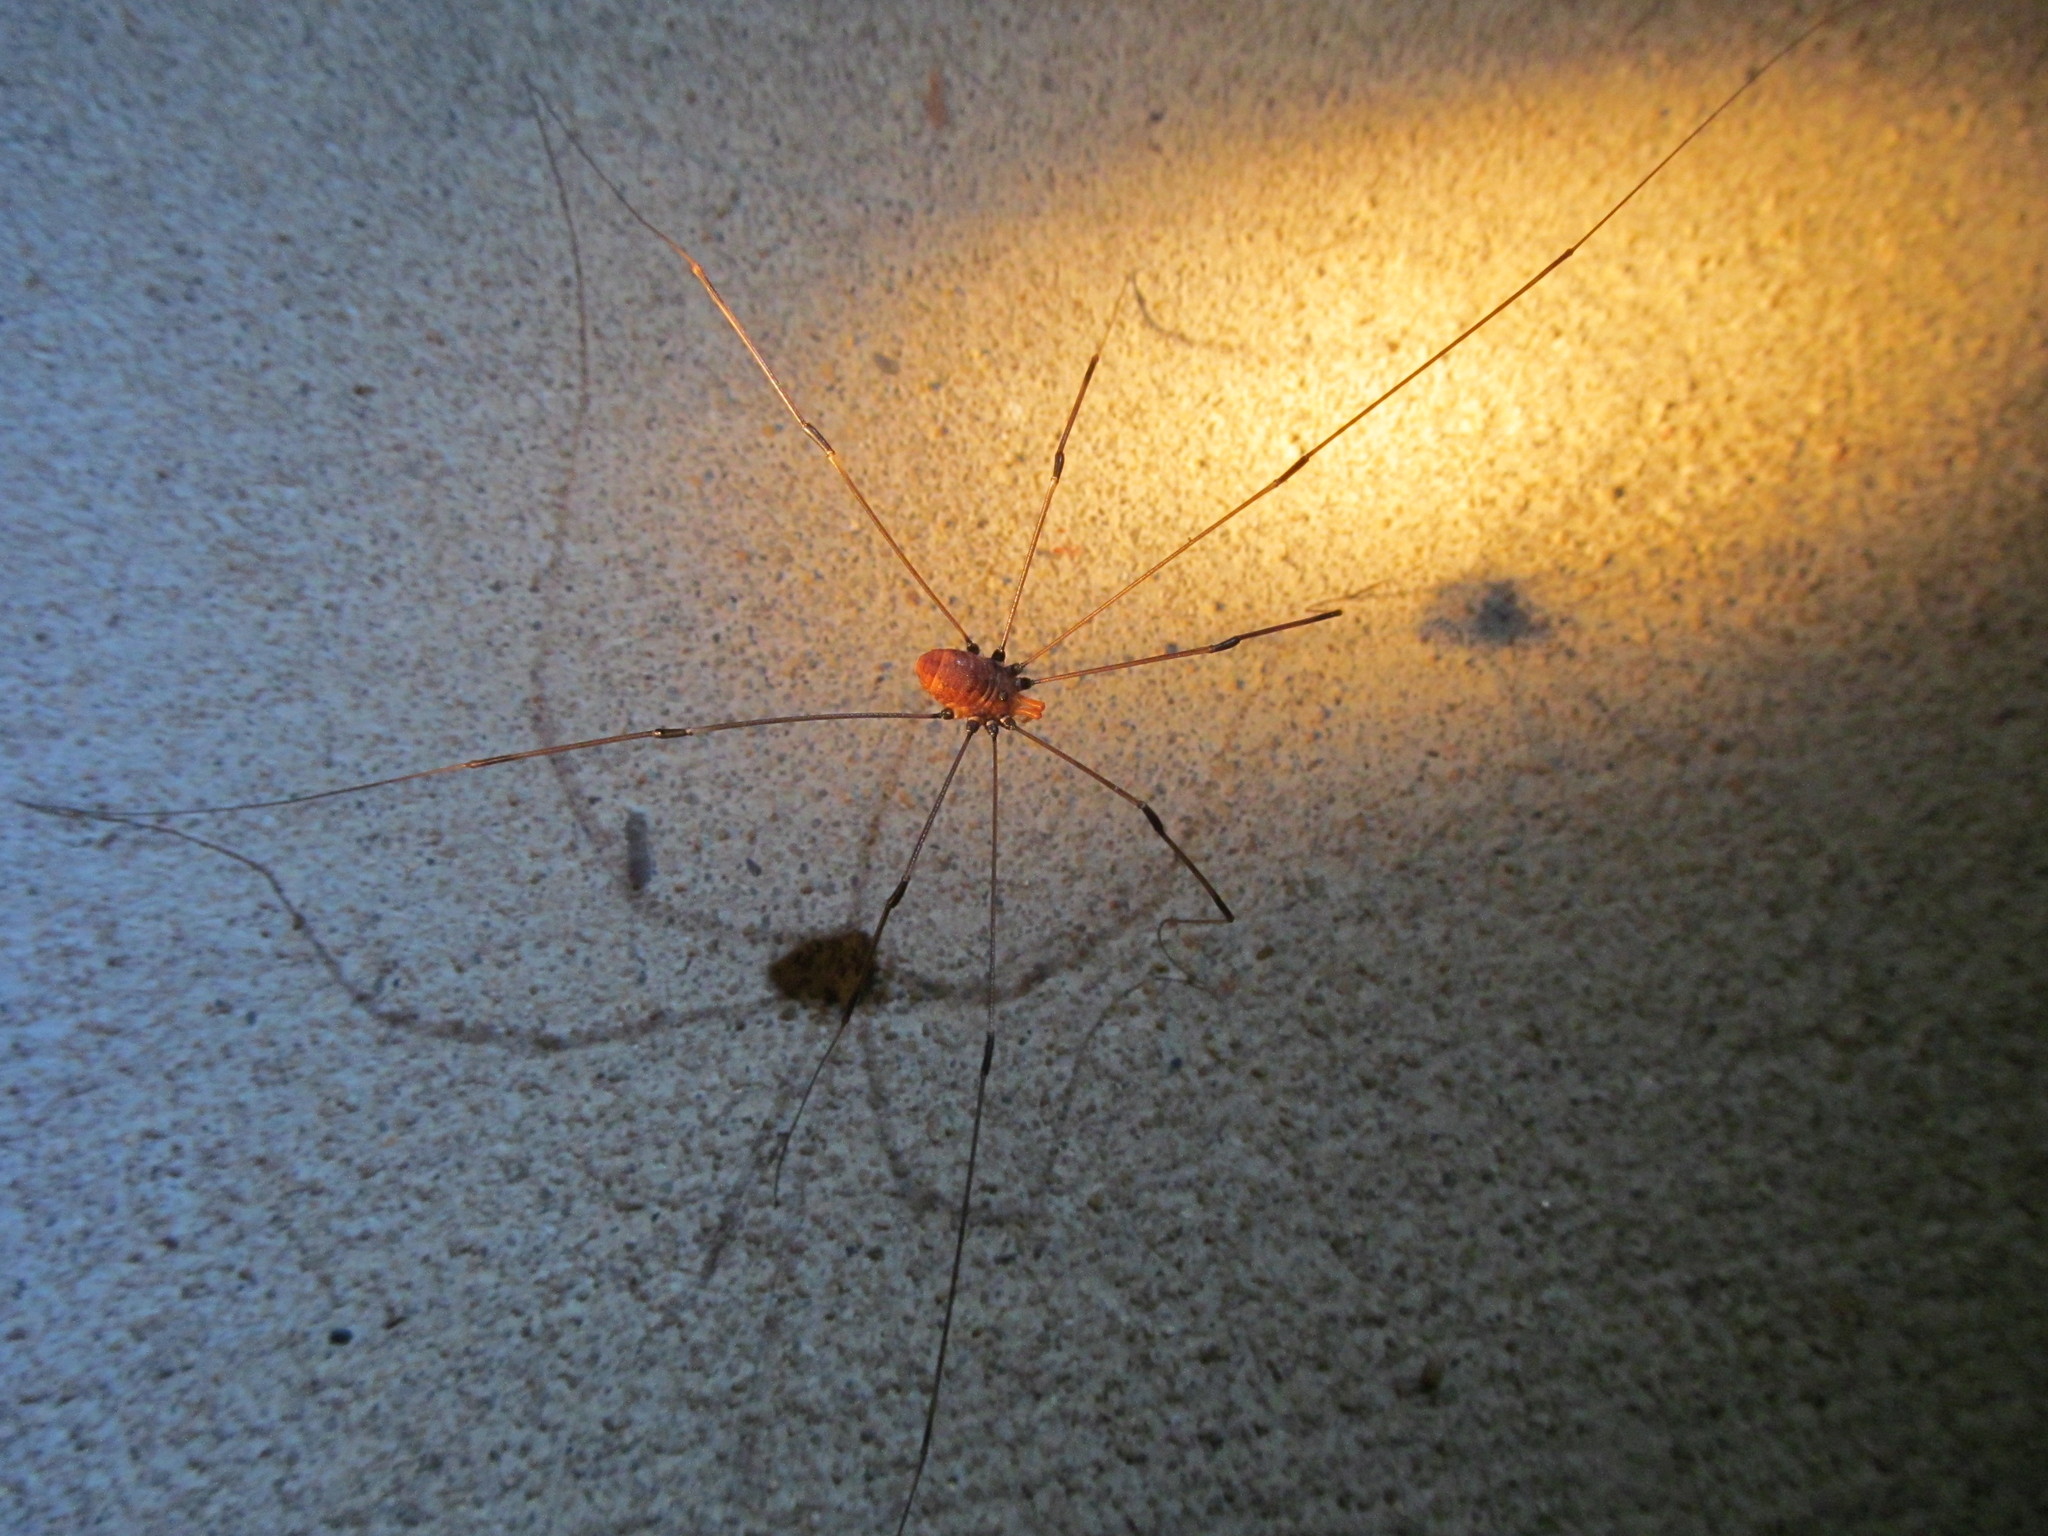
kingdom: Animalia
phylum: Arthropoda
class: Arachnida
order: Opiliones
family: Sclerosomatidae
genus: Leiobunum
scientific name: Leiobunum vittatum
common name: Eastern harvestman
